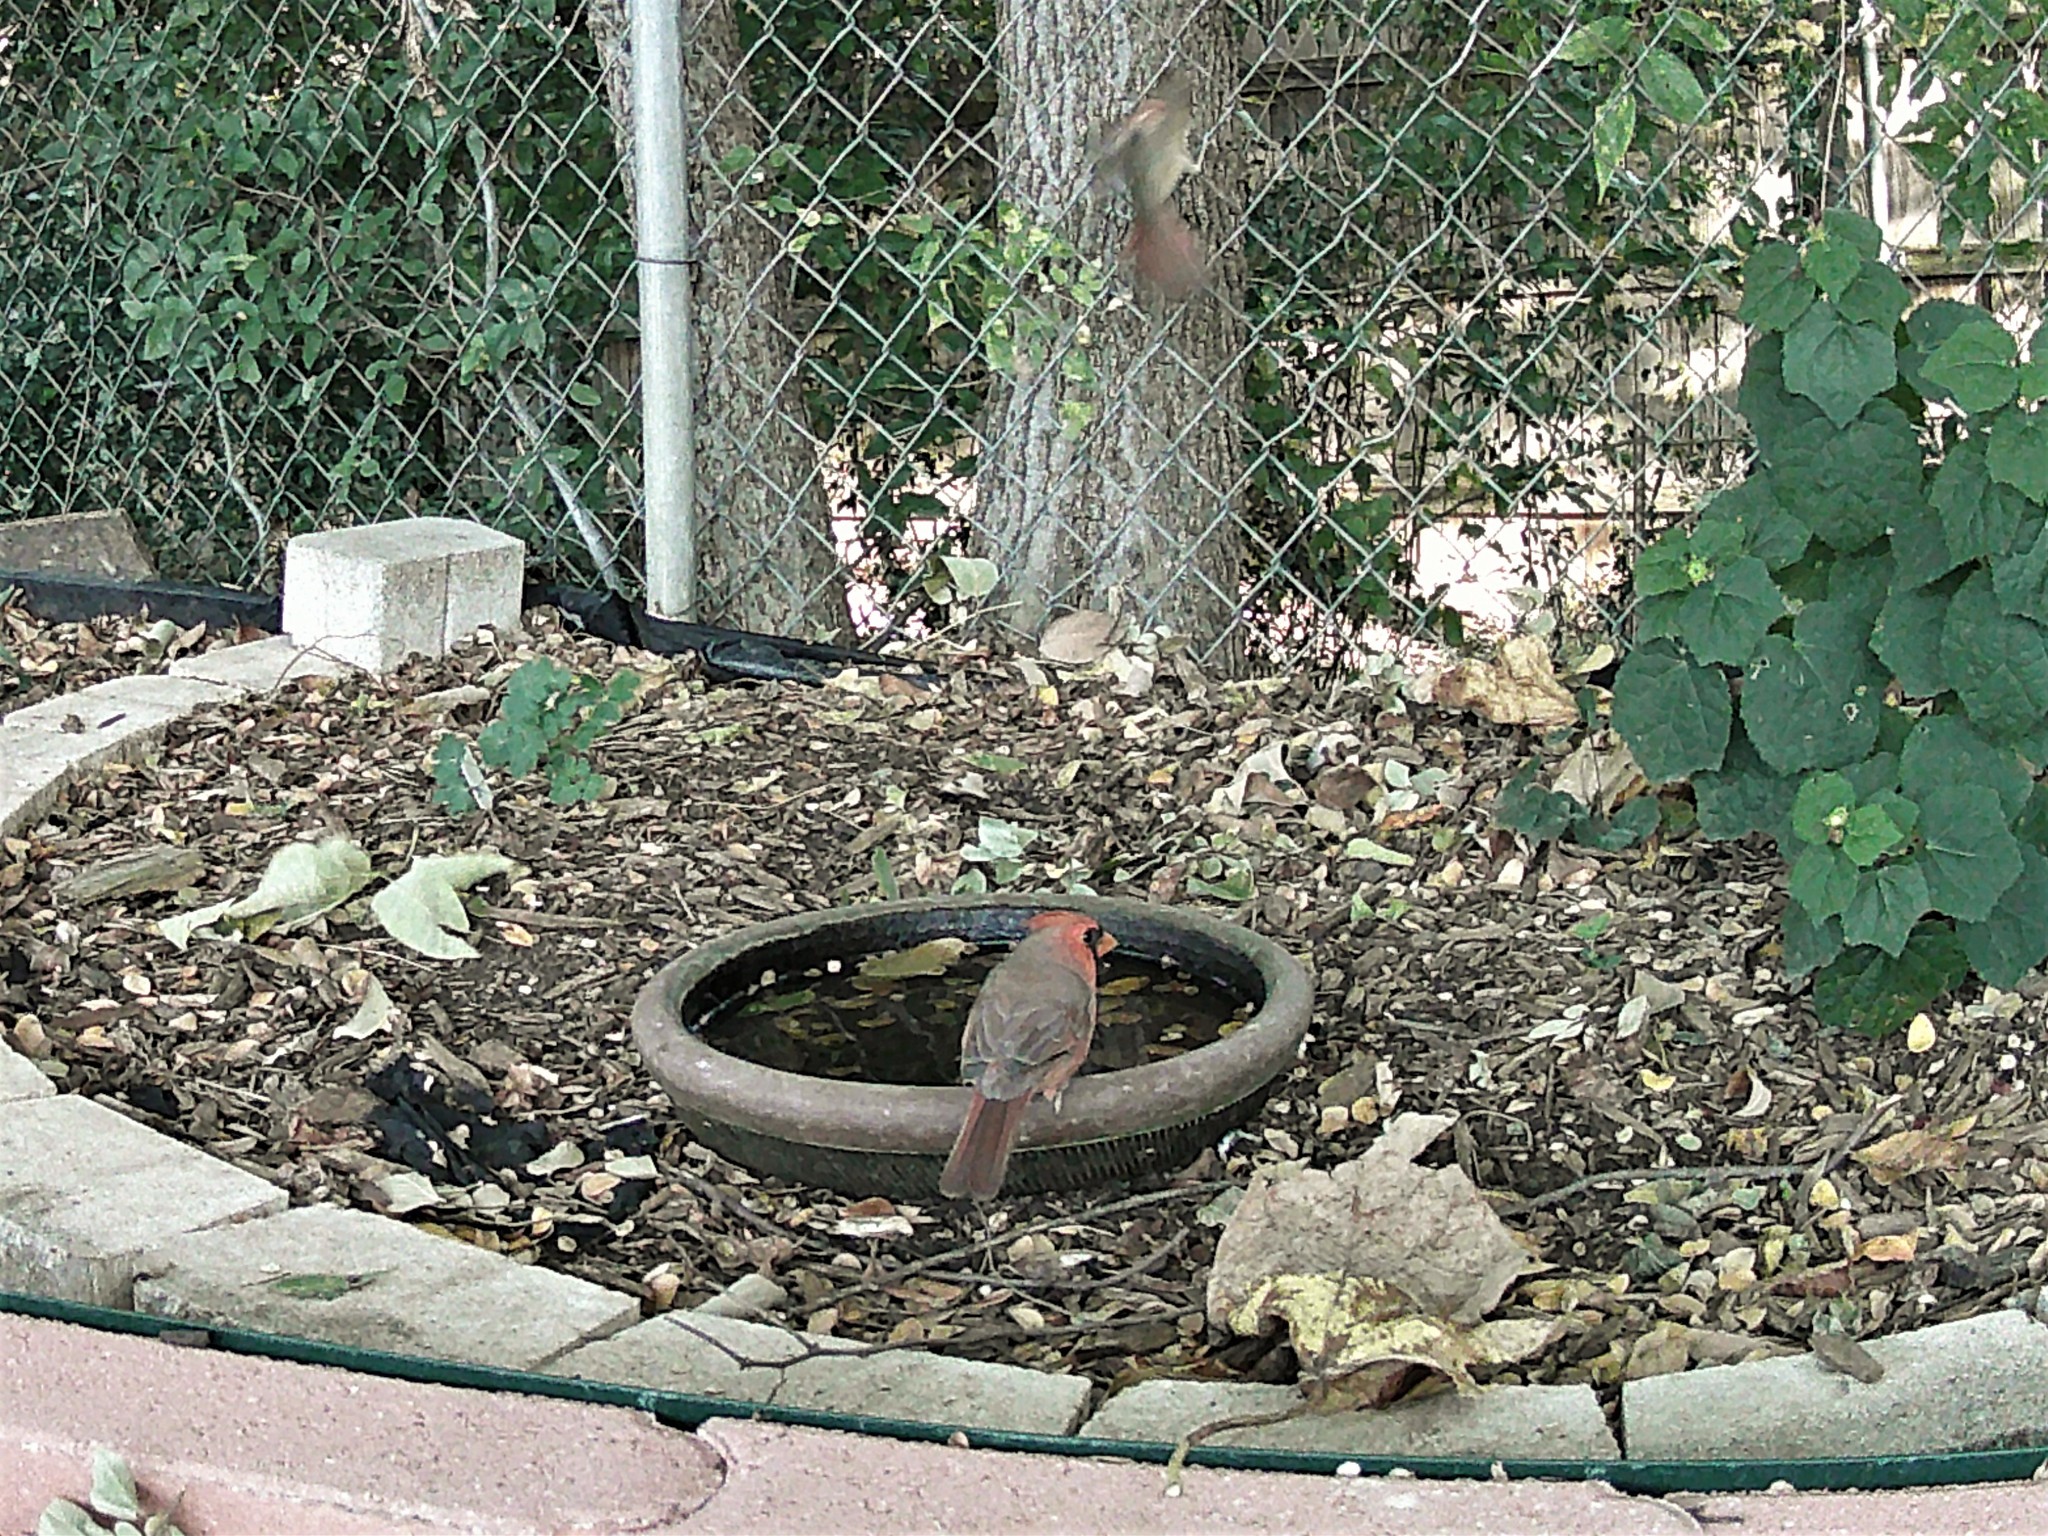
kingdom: Animalia
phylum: Chordata
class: Aves
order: Passeriformes
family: Cardinalidae
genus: Cardinalis
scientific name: Cardinalis cardinalis
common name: Northern cardinal
